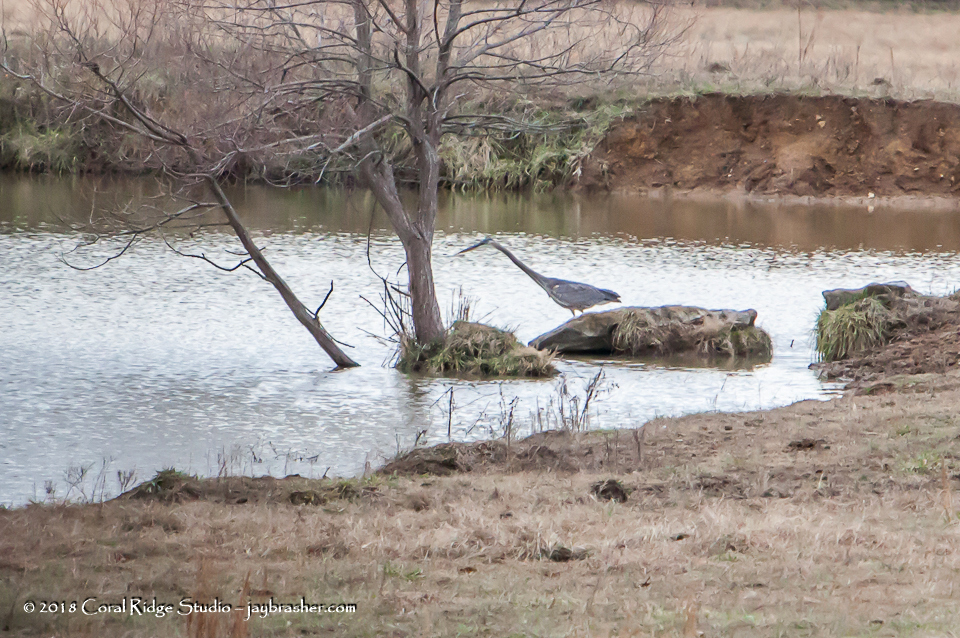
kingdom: Animalia
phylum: Chordata
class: Aves
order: Pelecaniformes
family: Ardeidae
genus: Ardea
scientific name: Ardea herodias
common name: Great blue heron
